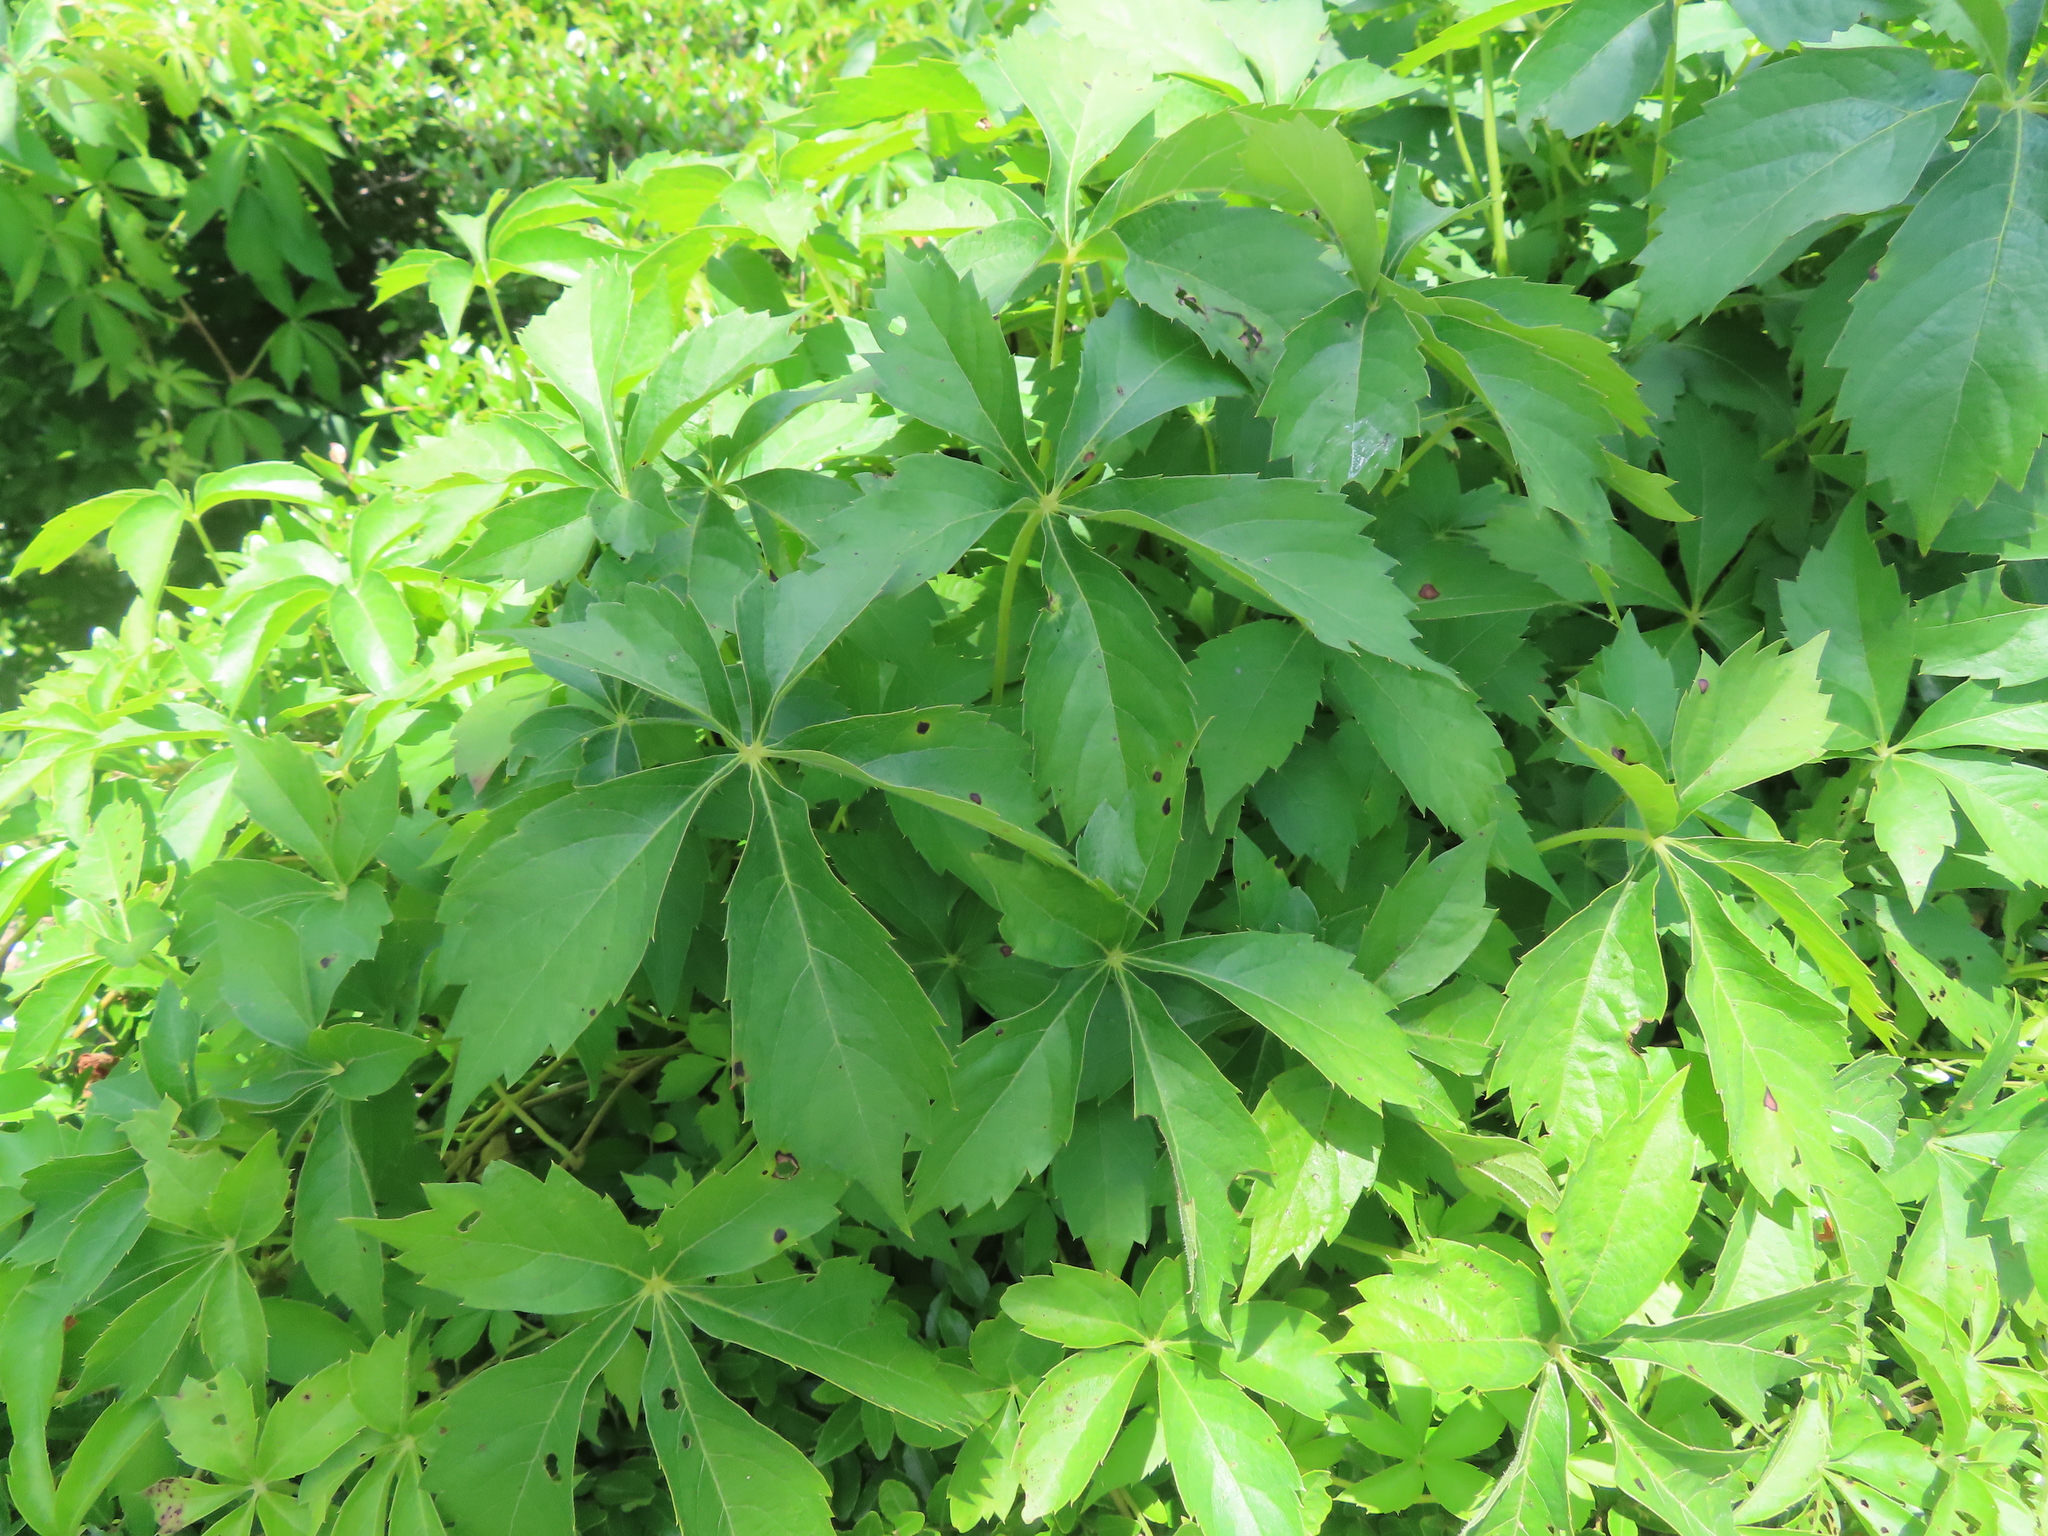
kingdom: Plantae
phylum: Tracheophyta
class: Magnoliopsida
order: Vitales
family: Vitaceae
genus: Parthenocissus
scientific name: Parthenocissus quinquefolia
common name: Virginia-creeper
